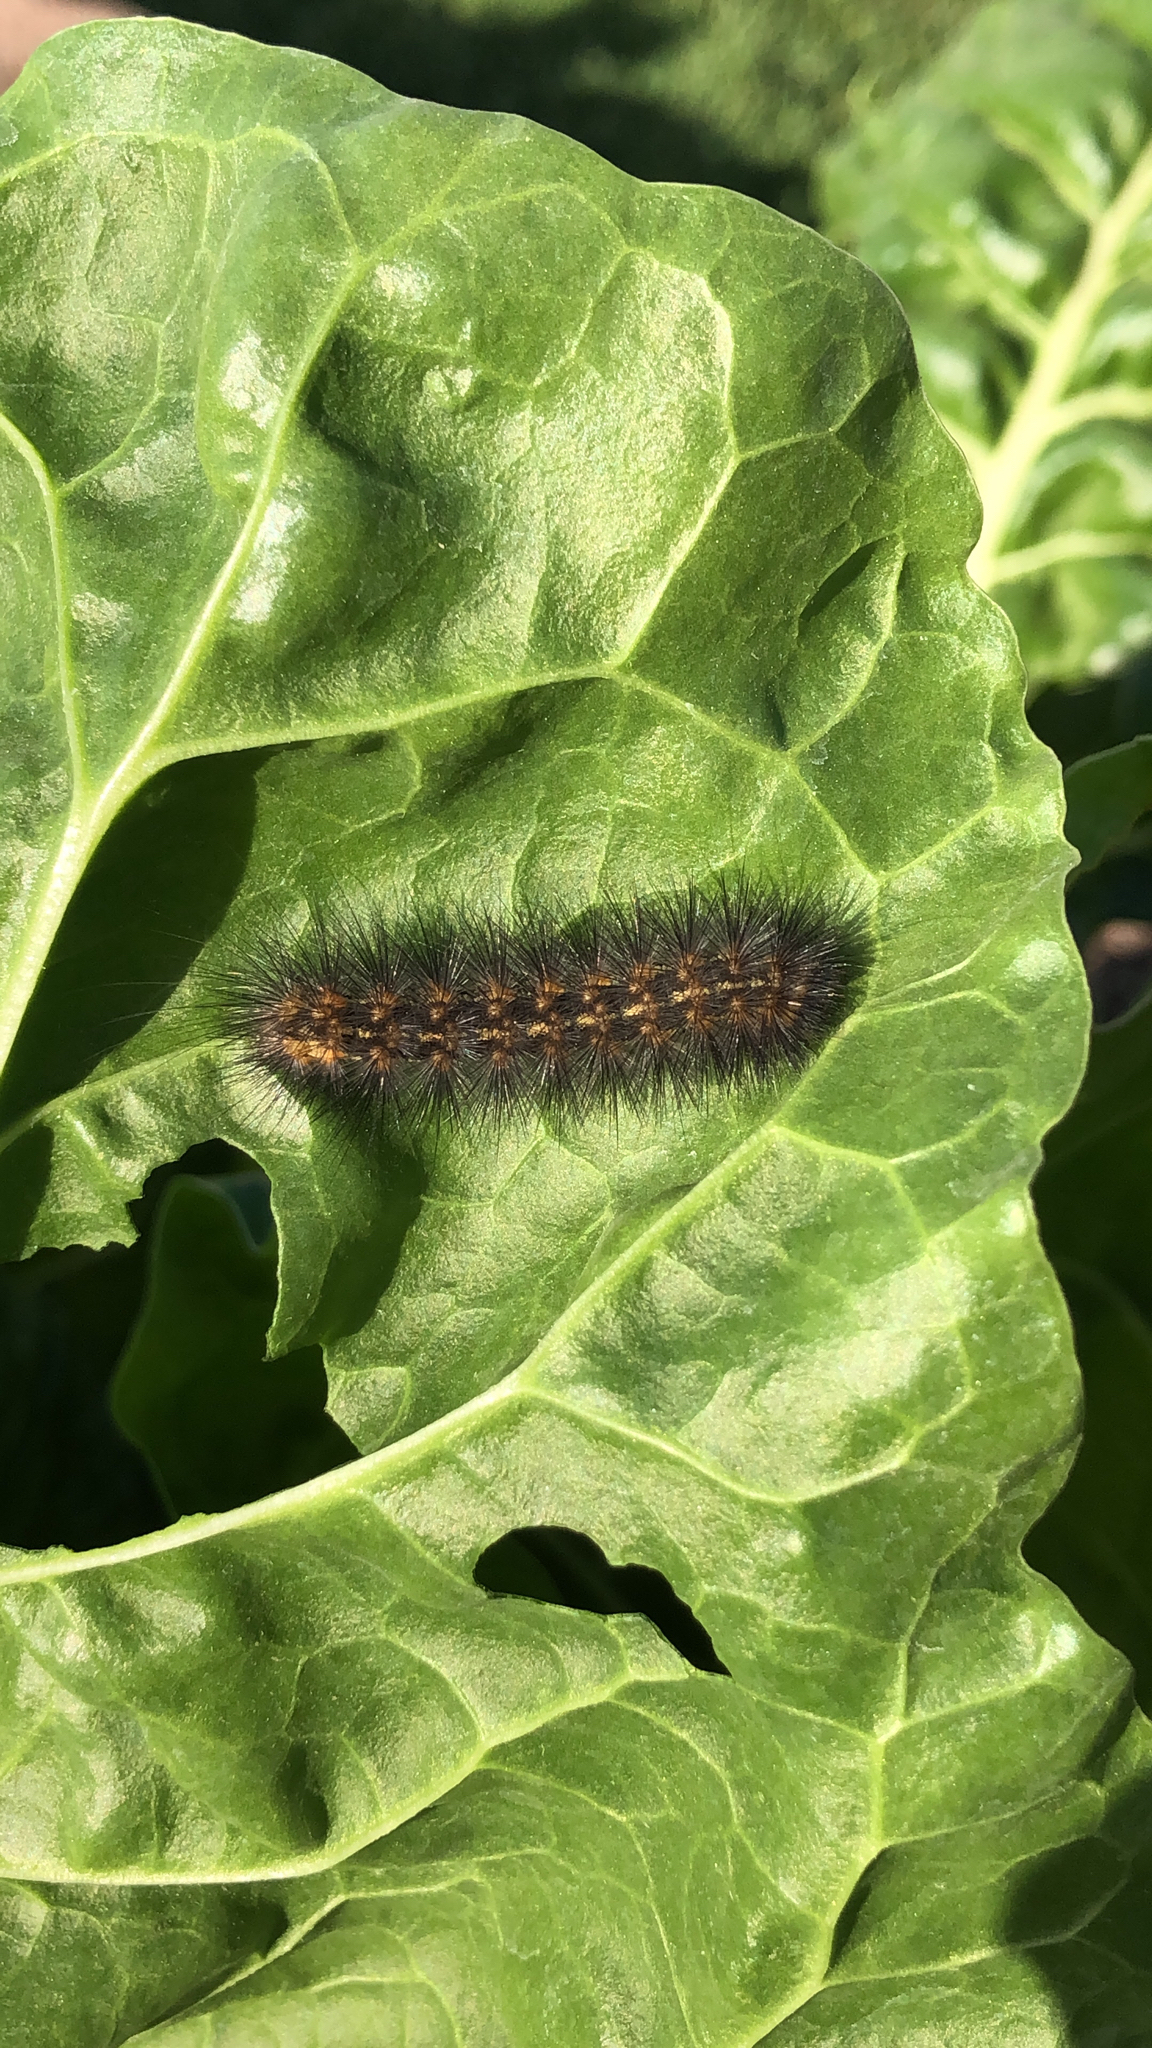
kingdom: Animalia
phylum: Arthropoda
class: Insecta
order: Lepidoptera
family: Erebidae
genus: Estigmene
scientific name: Estigmene acrea
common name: Salt marsh moth
